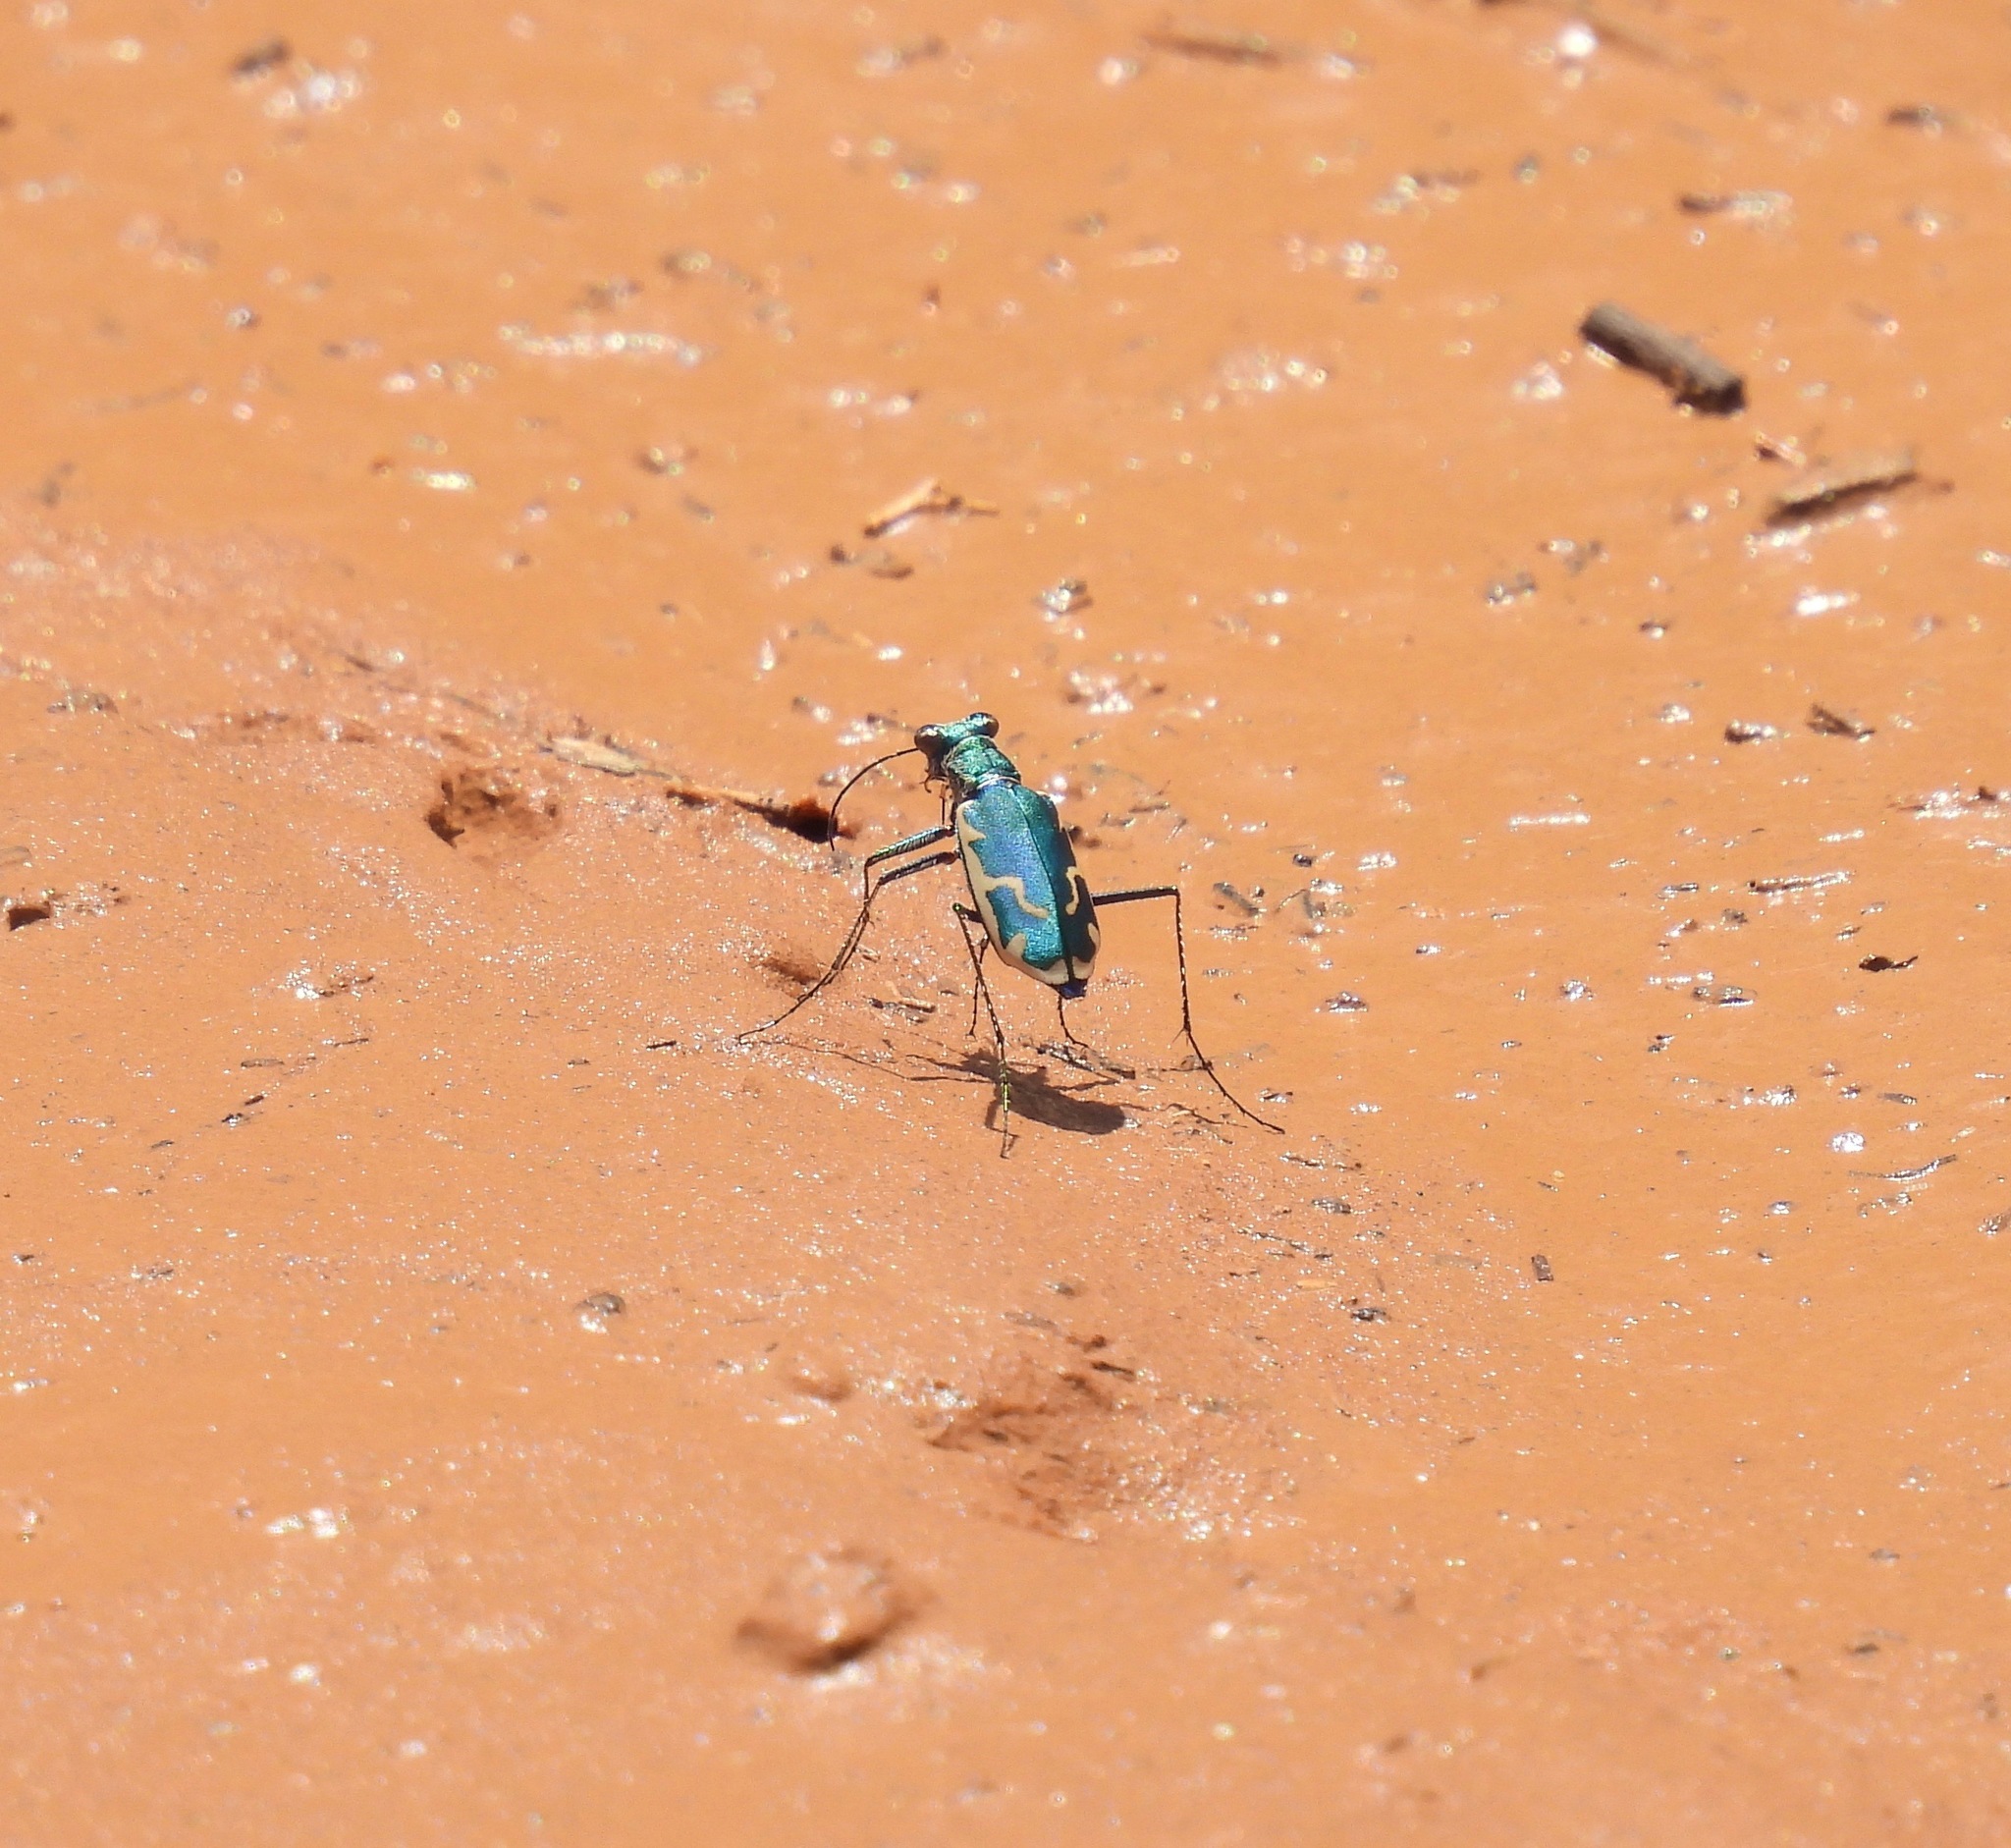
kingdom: Animalia
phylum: Arthropoda
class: Insecta
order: Coleoptera
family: Carabidae
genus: Ellipsoptera
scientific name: Ellipsoptera rubicunda
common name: Aridland tiger beetle
